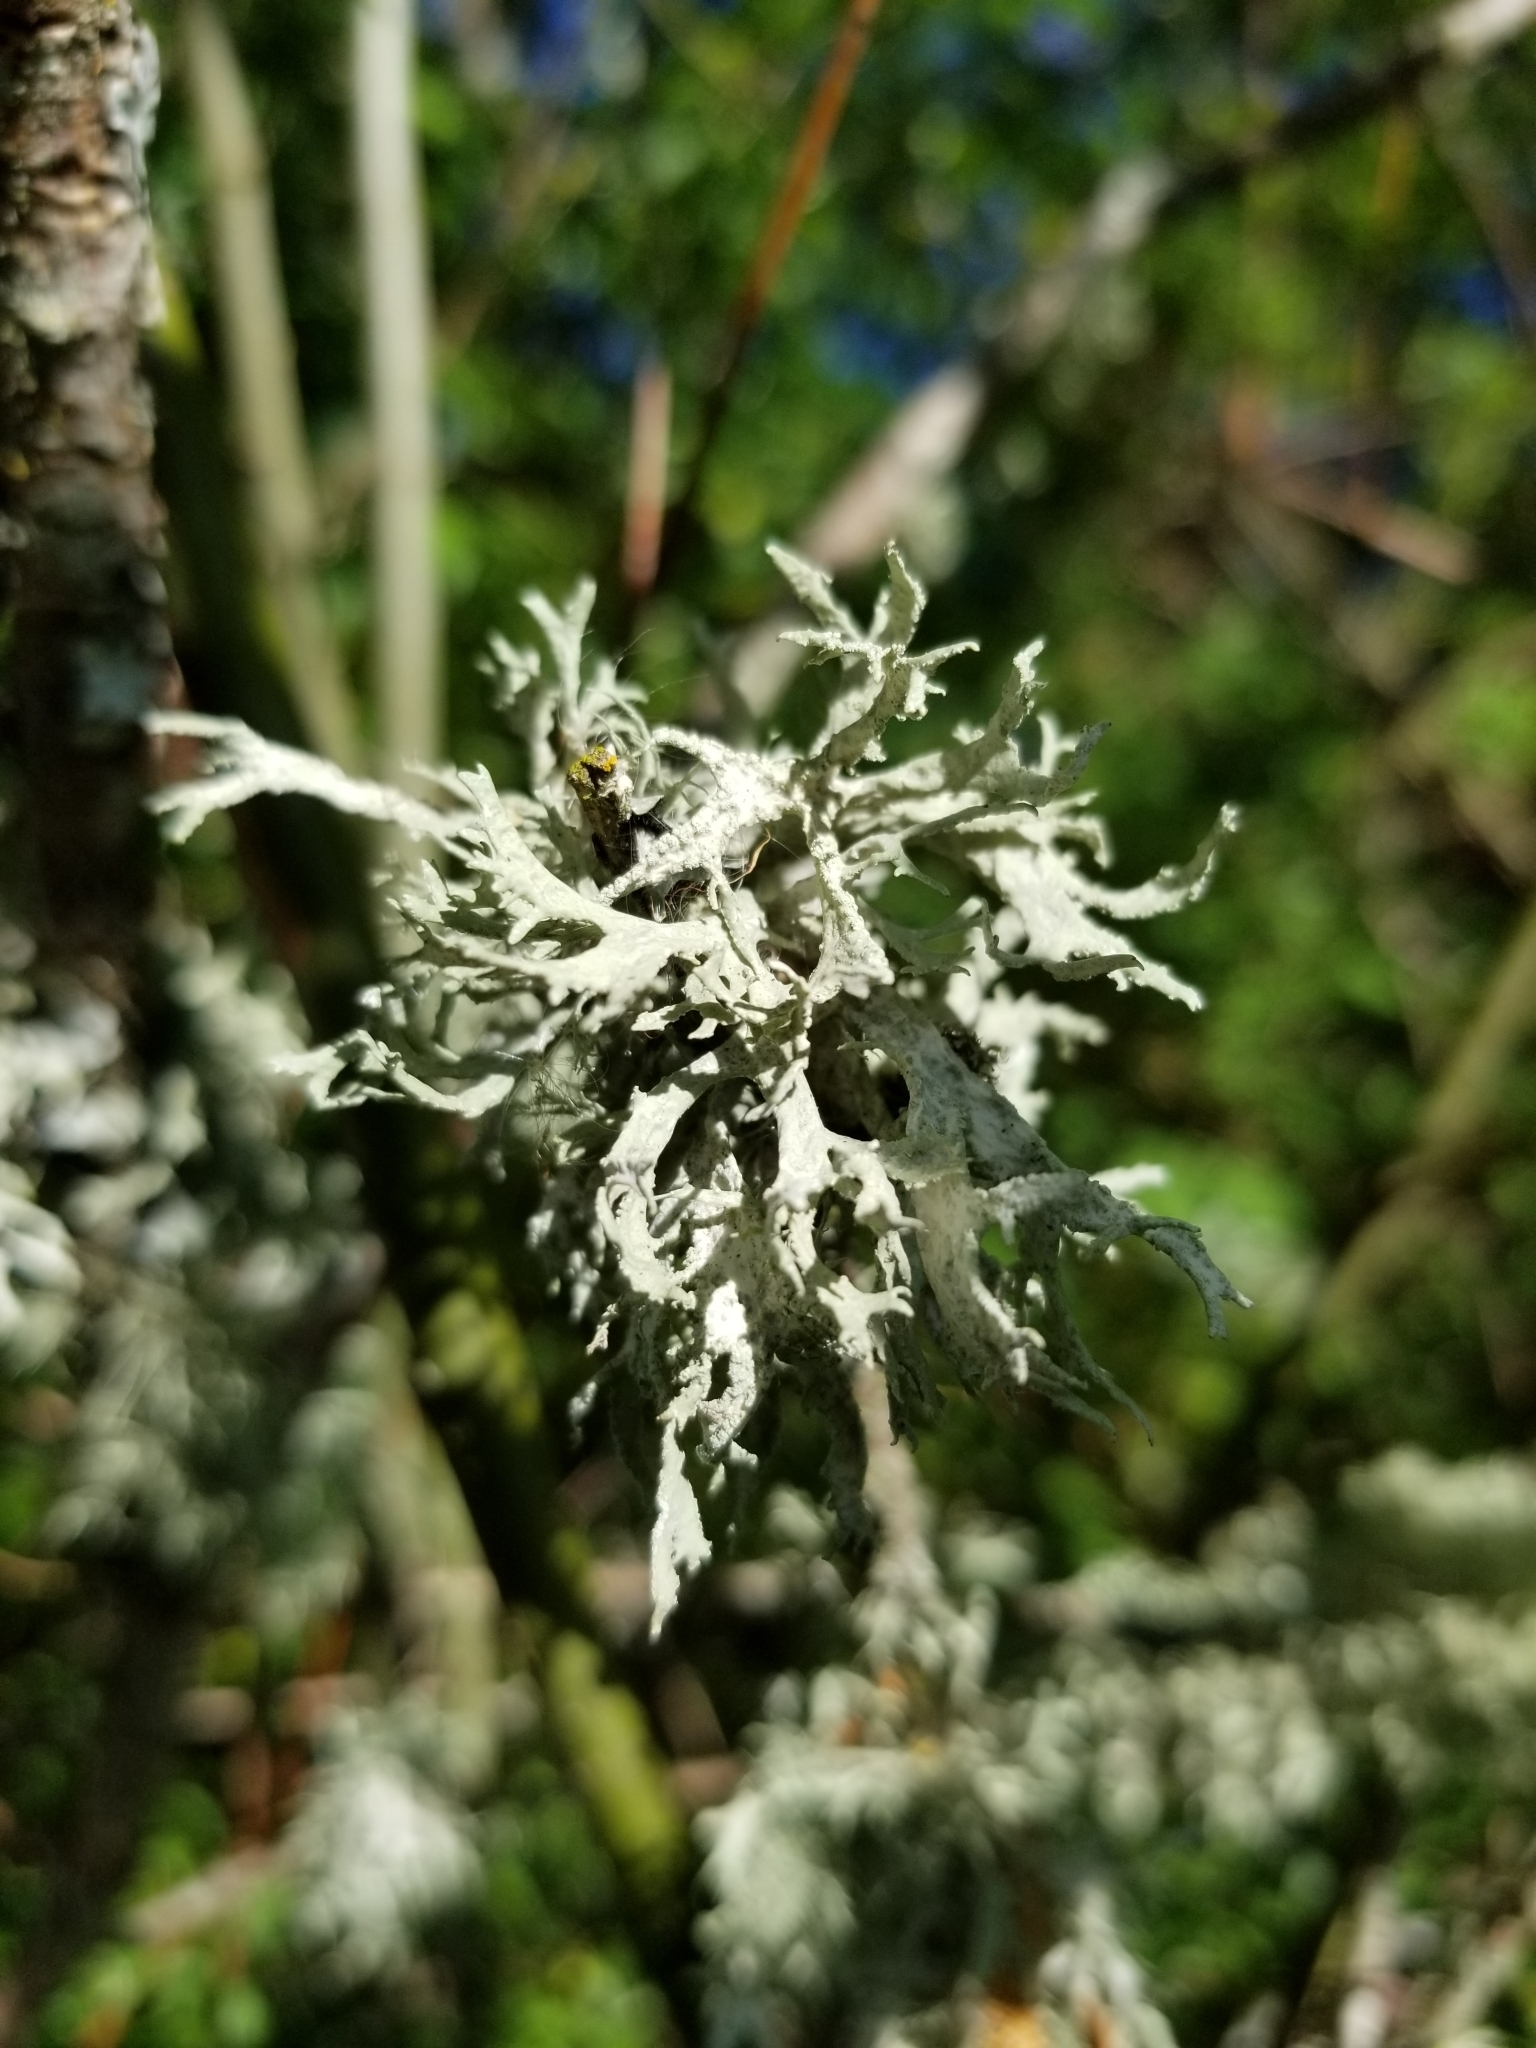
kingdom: Fungi
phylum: Ascomycota
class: Lecanoromycetes
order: Lecanorales
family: Parmeliaceae
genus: Evernia
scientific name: Evernia prunastri
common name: Oak moss
